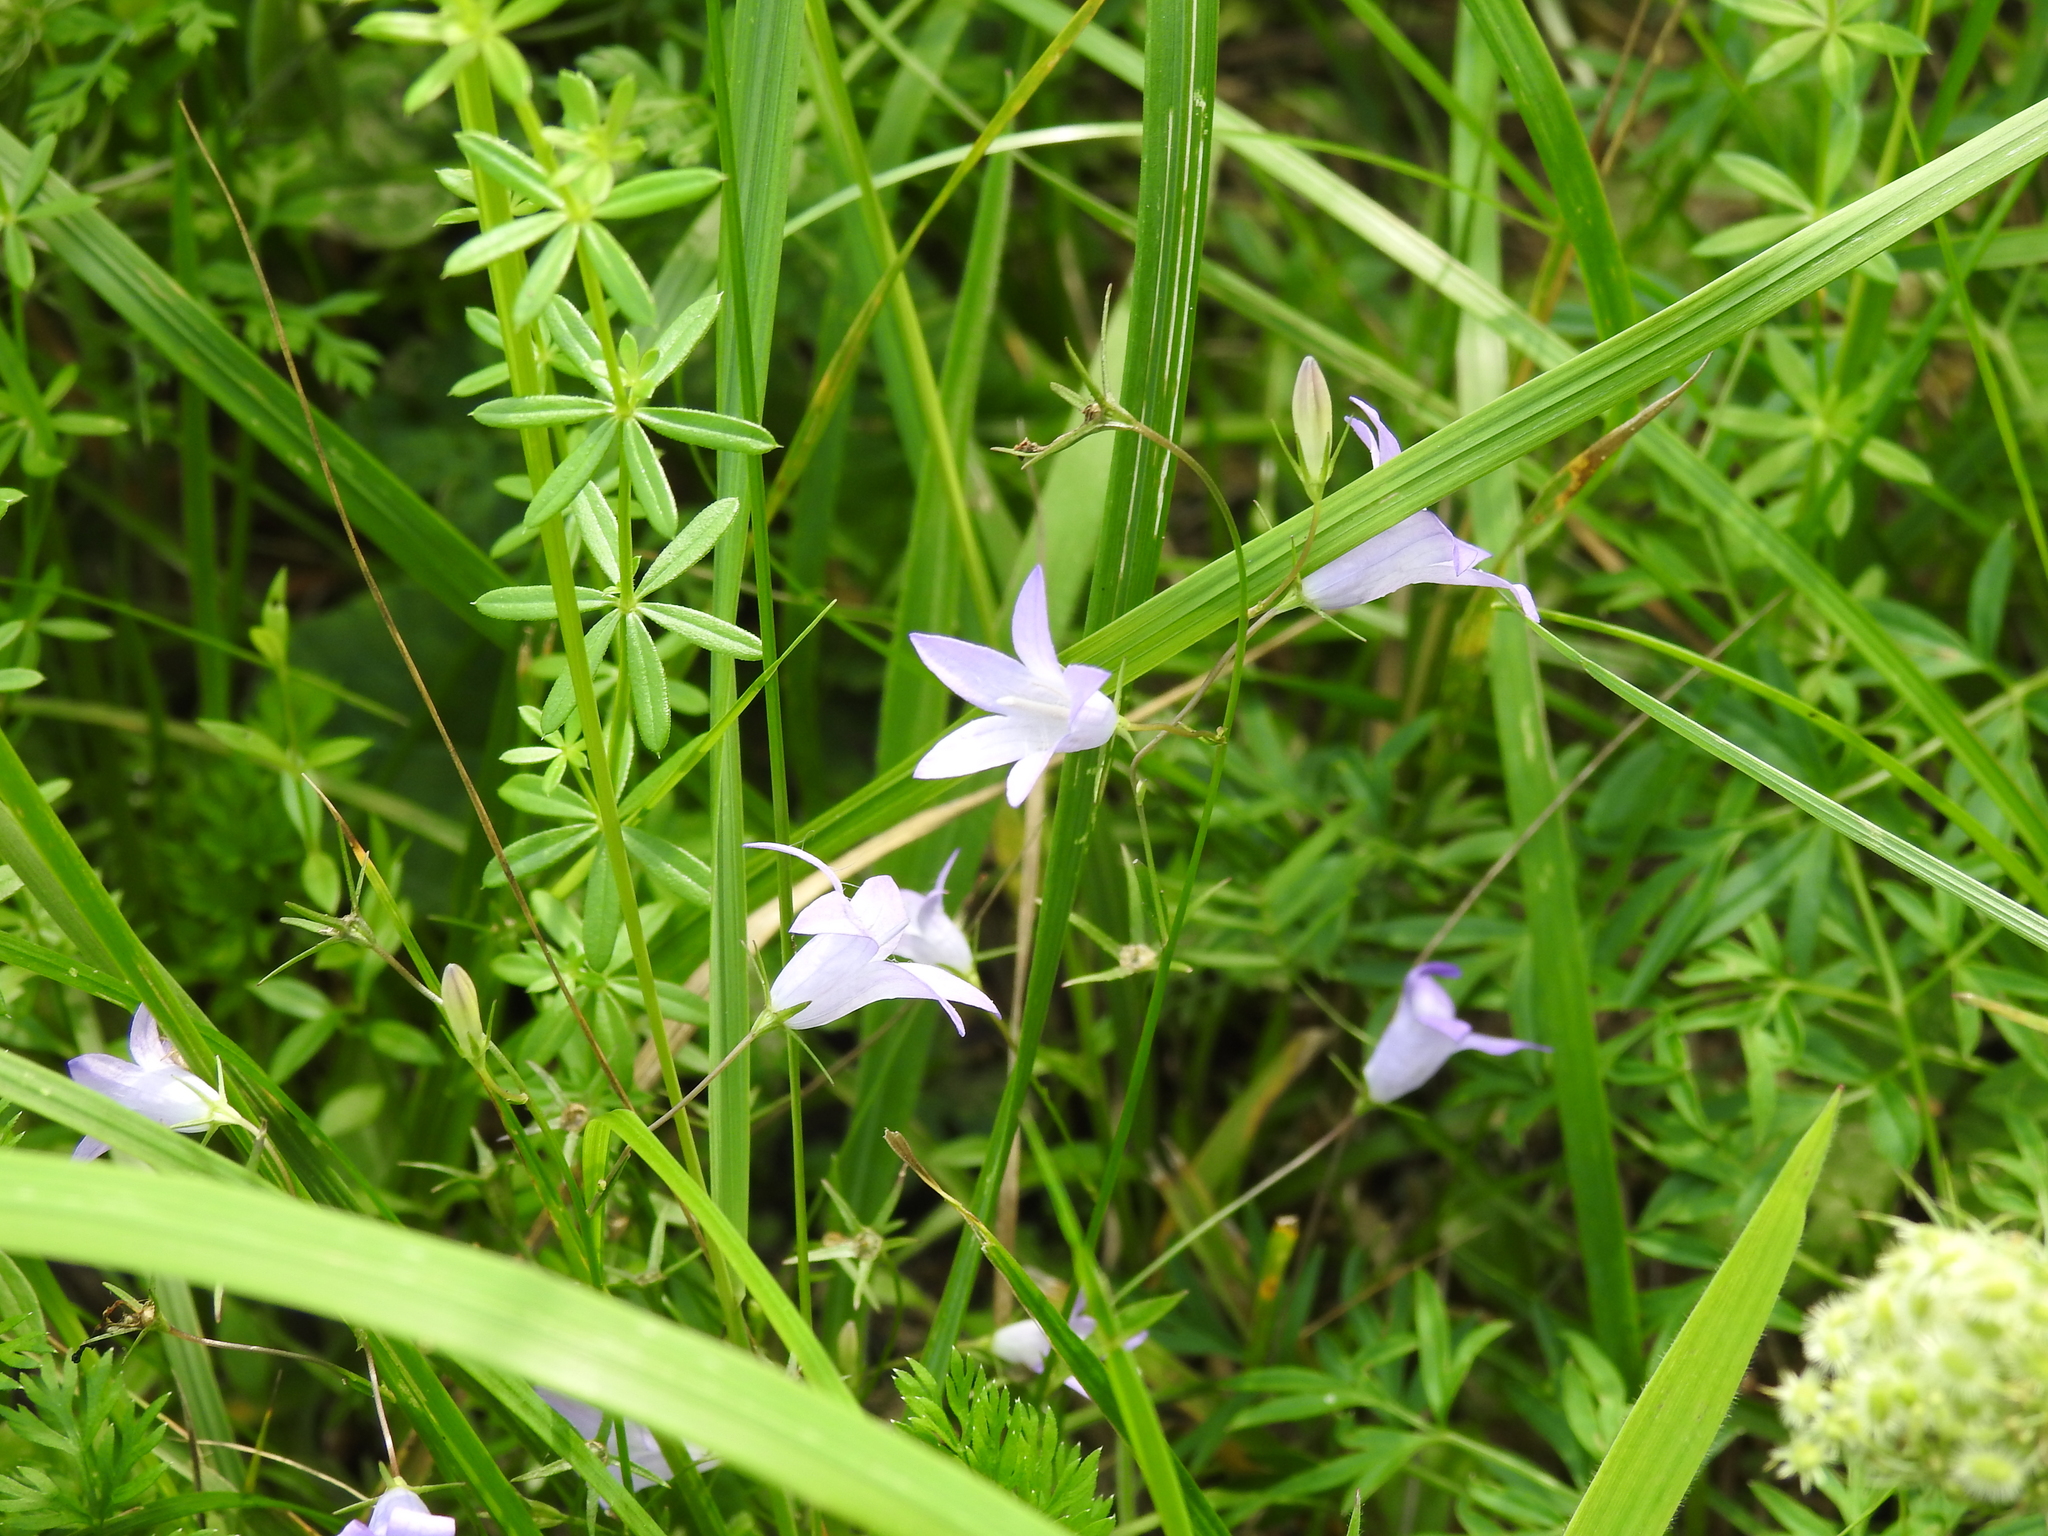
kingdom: Plantae
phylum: Tracheophyta
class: Magnoliopsida
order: Asterales
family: Campanulaceae
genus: Campanula
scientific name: Campanula rapunculus
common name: Rampion bellflower
